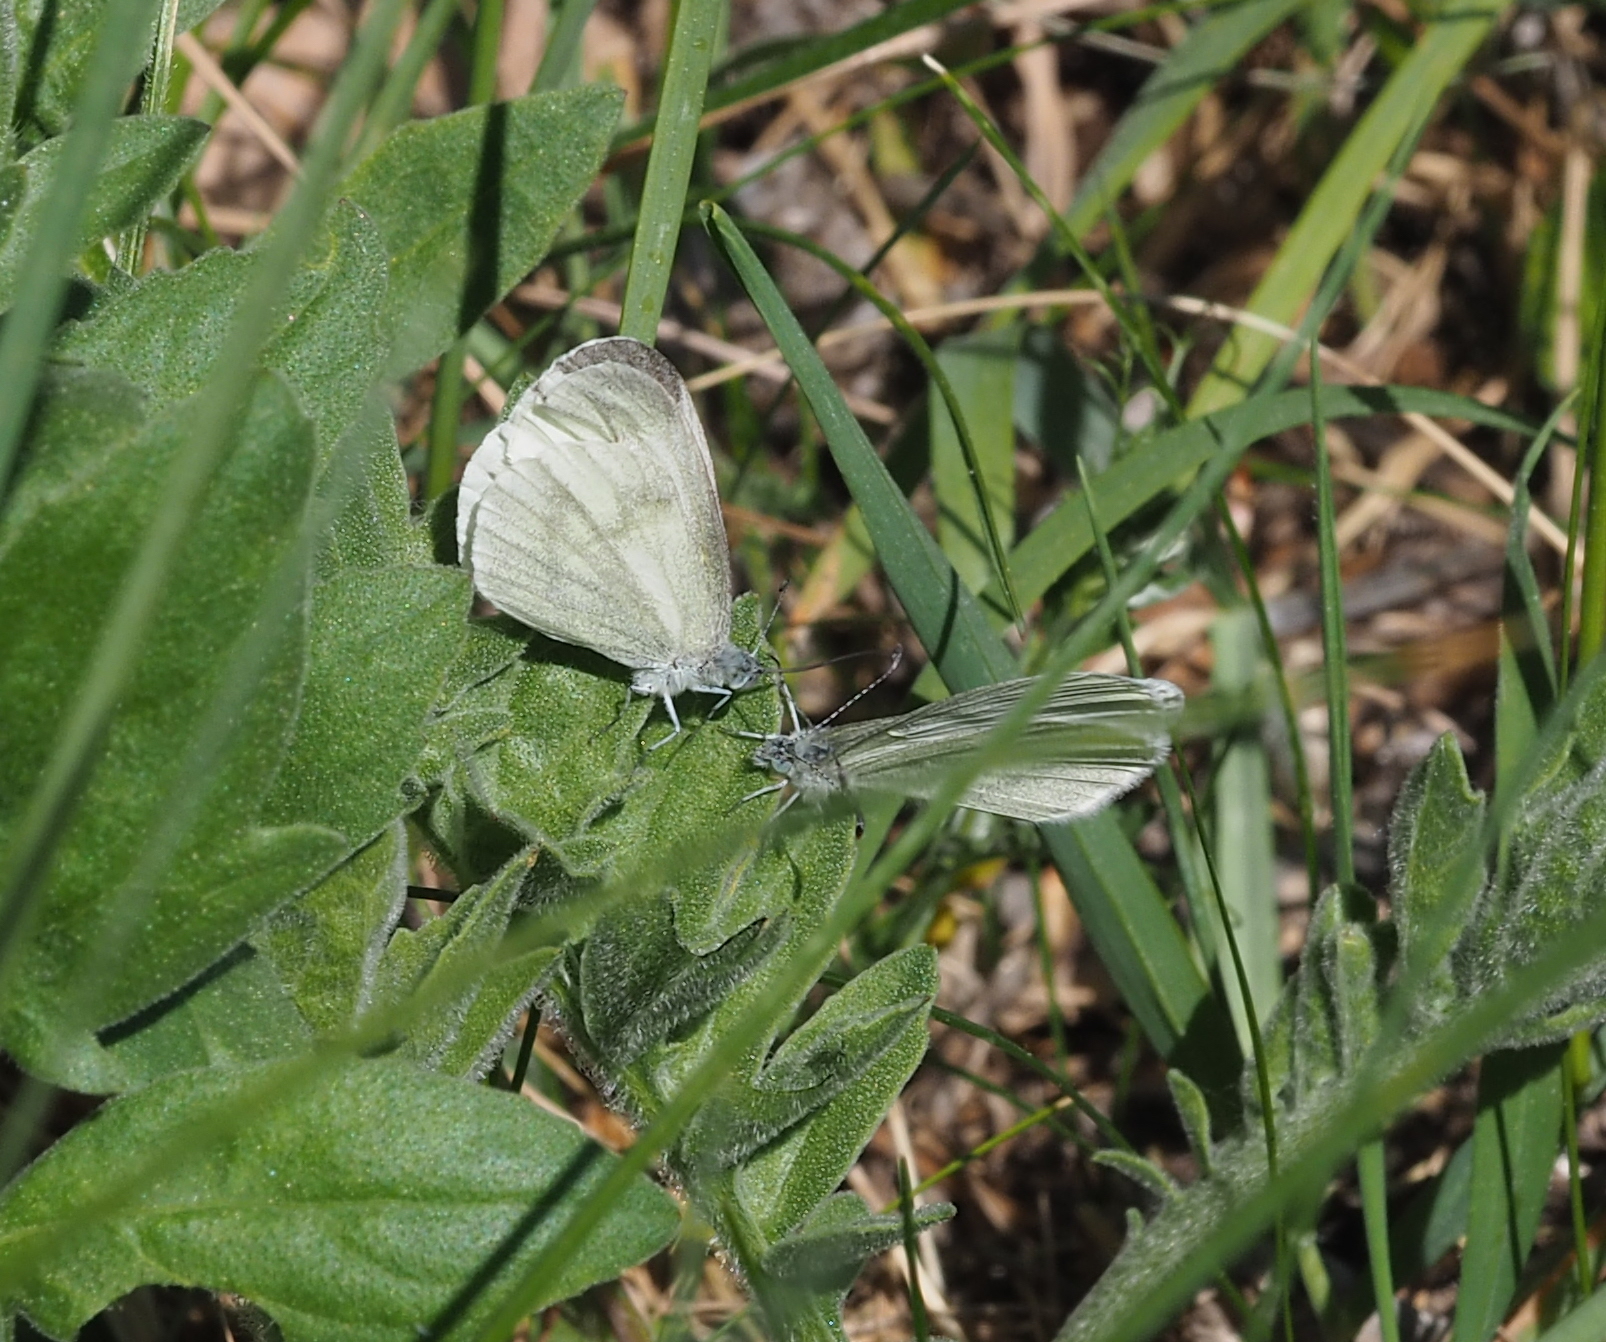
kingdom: Animalia
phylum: Arthropoda
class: Insecta
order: Lepidoptera
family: Pieridae
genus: Leptidea
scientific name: Leptidea
